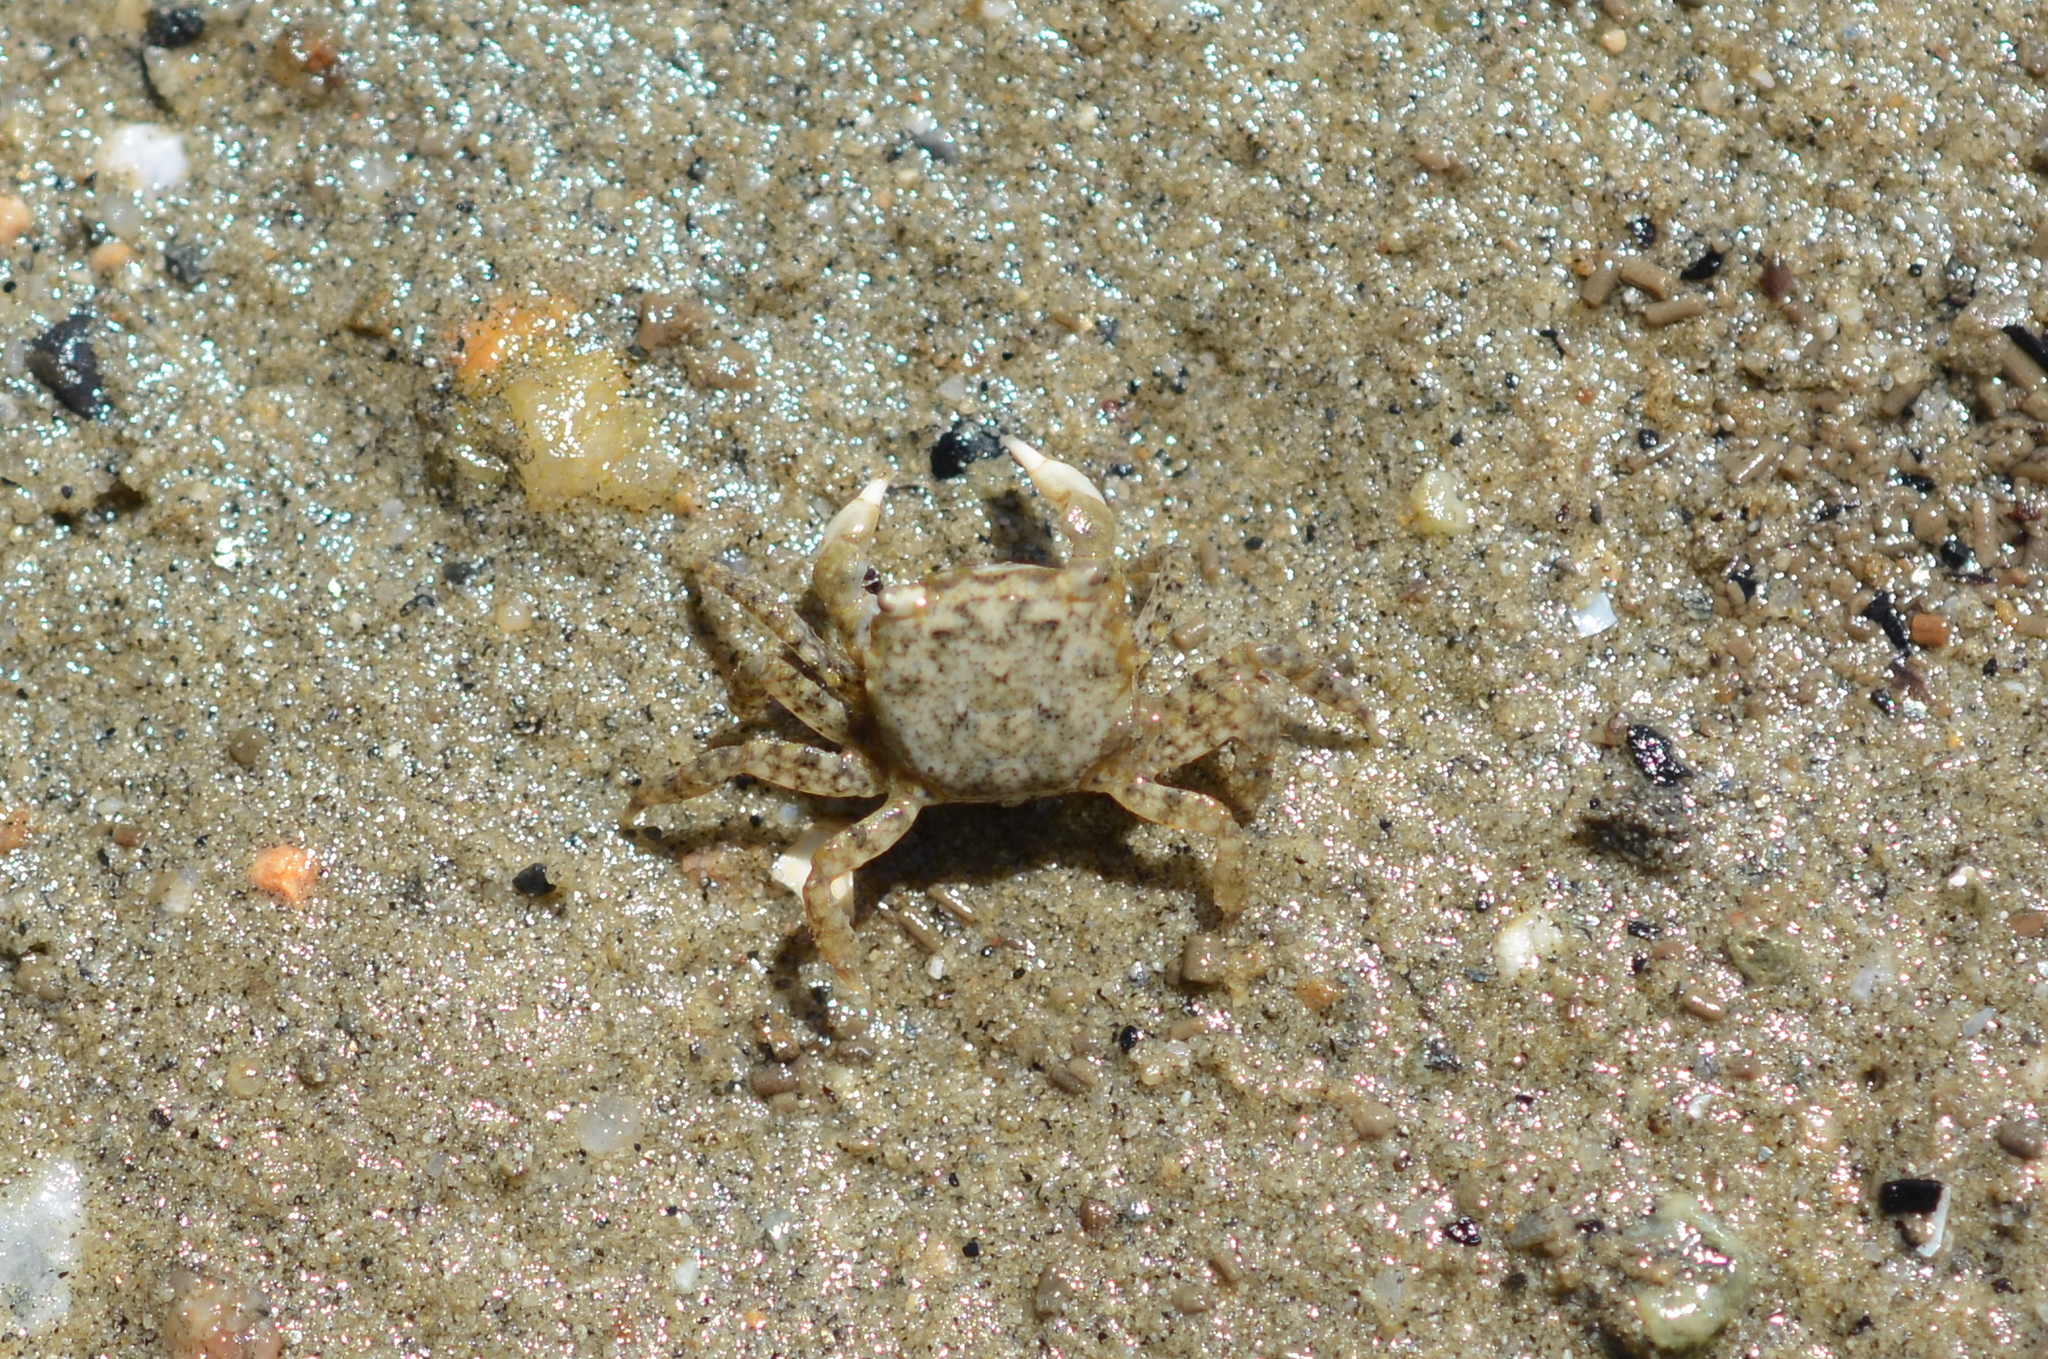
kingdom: Animalia
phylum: Arthropoda
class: Malacostraca
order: Decapoda
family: Varunidae
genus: Hemigrapsus
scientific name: Hemigrapsus oregonensis
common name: Yellow shore crab
